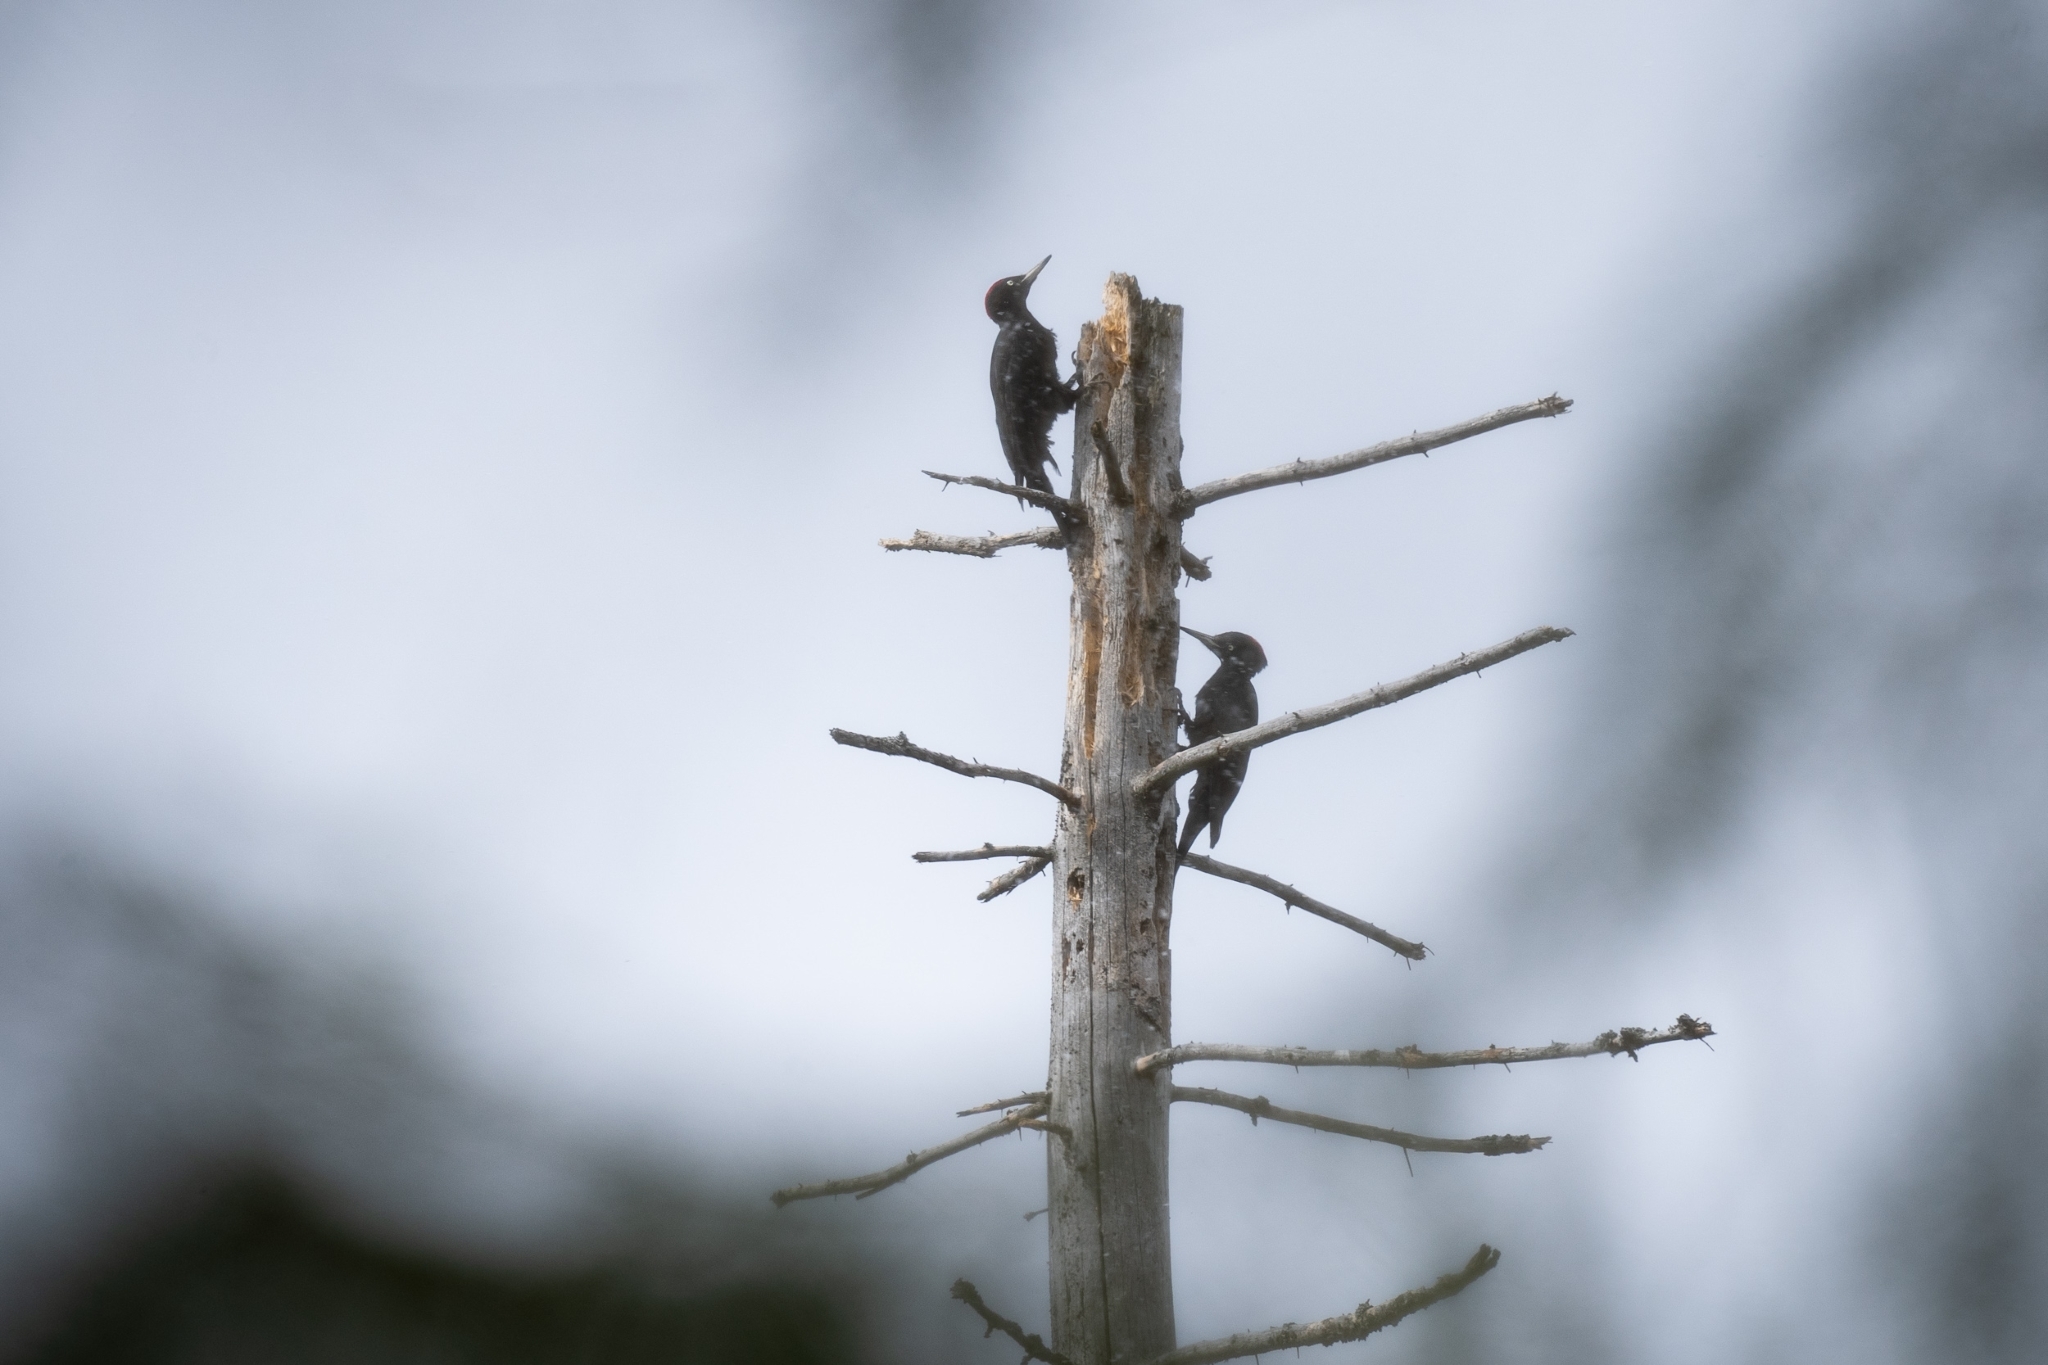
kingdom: Animalia
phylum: Chordata
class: Aves
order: Piciformes
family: Picidae
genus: Dryocopus
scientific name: Dryocopus martius
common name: Black woodpecker
